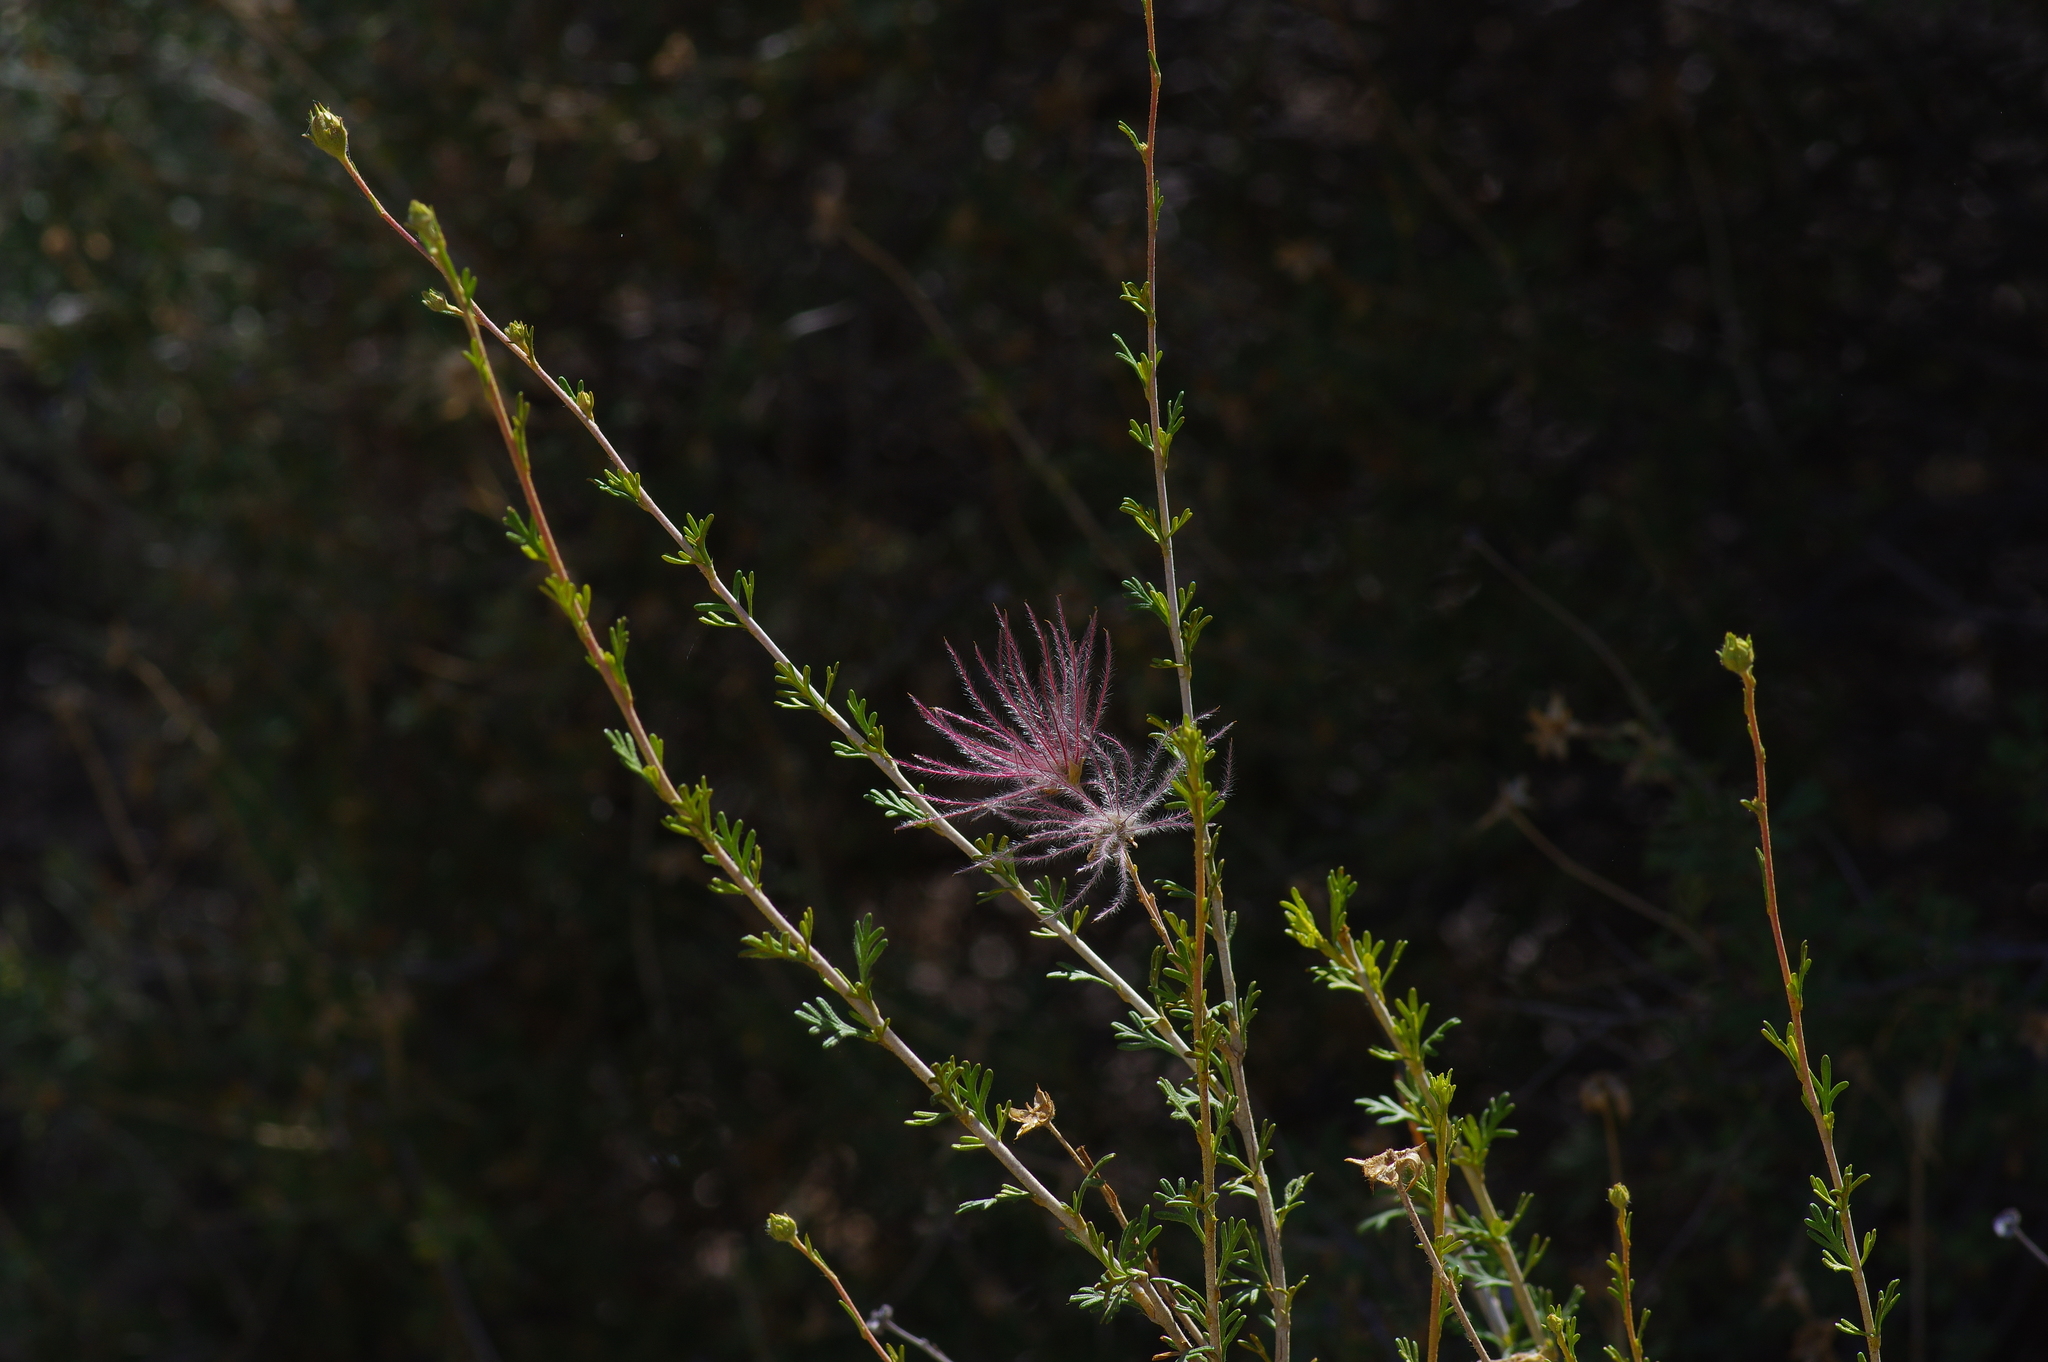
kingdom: Plantae
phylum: Tracheophyta
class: Magnoliopsida
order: Rosales
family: Rosaceae
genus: Fallugia
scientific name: Fallugia paradoxa
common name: Apache-plume
